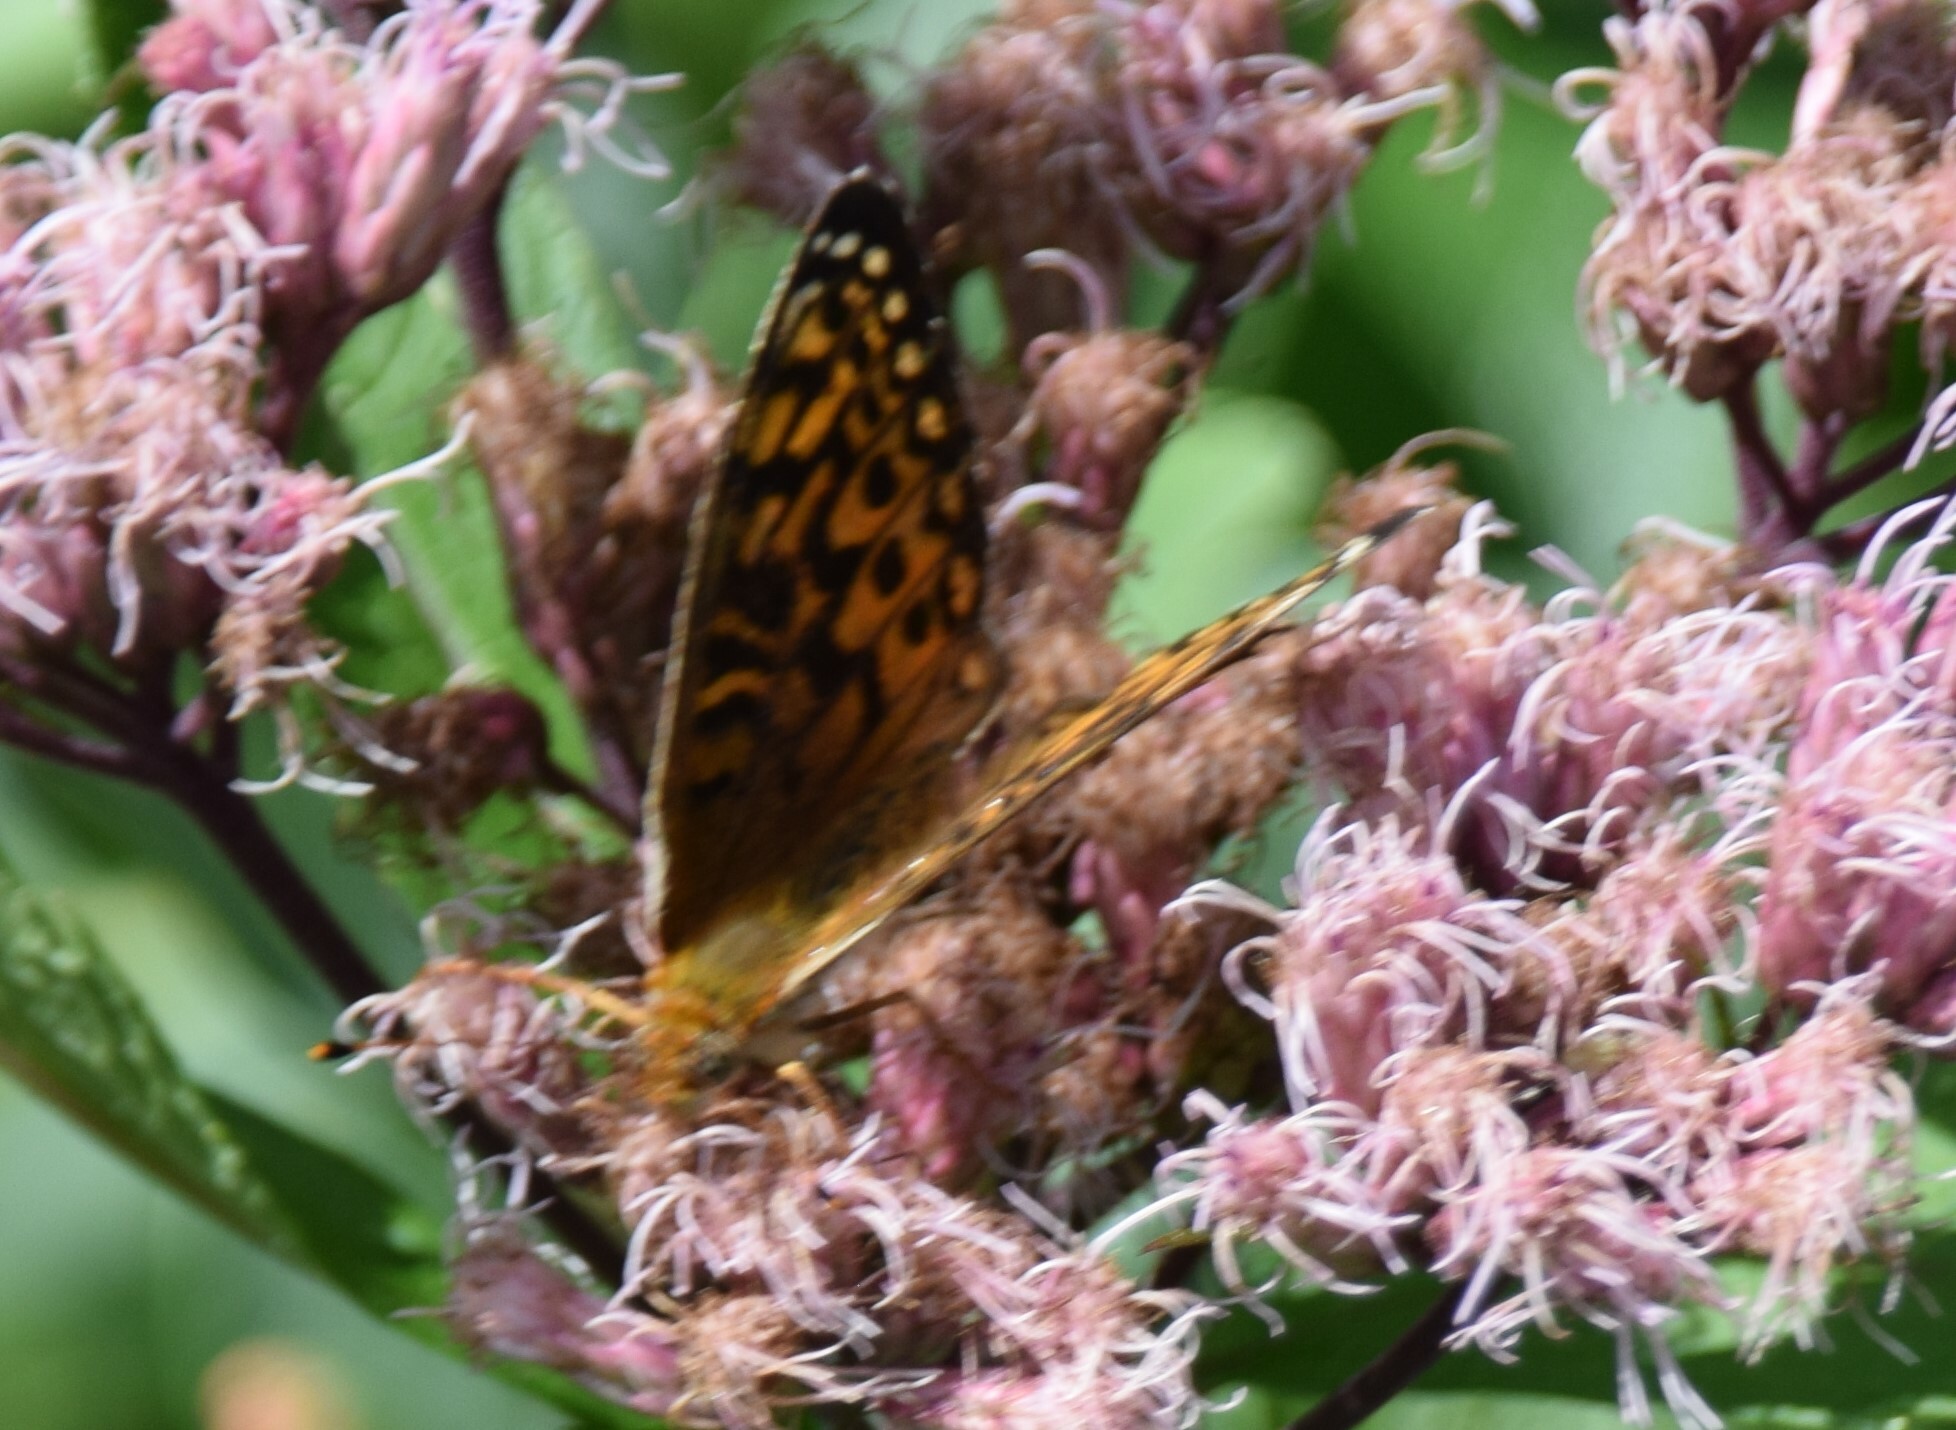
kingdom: Animalia
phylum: Arthropoda
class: Insecta
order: Lepidoptera
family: Nymphalidae
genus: Speyeria
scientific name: Speyeria atlantis
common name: Atlantis fritillary
